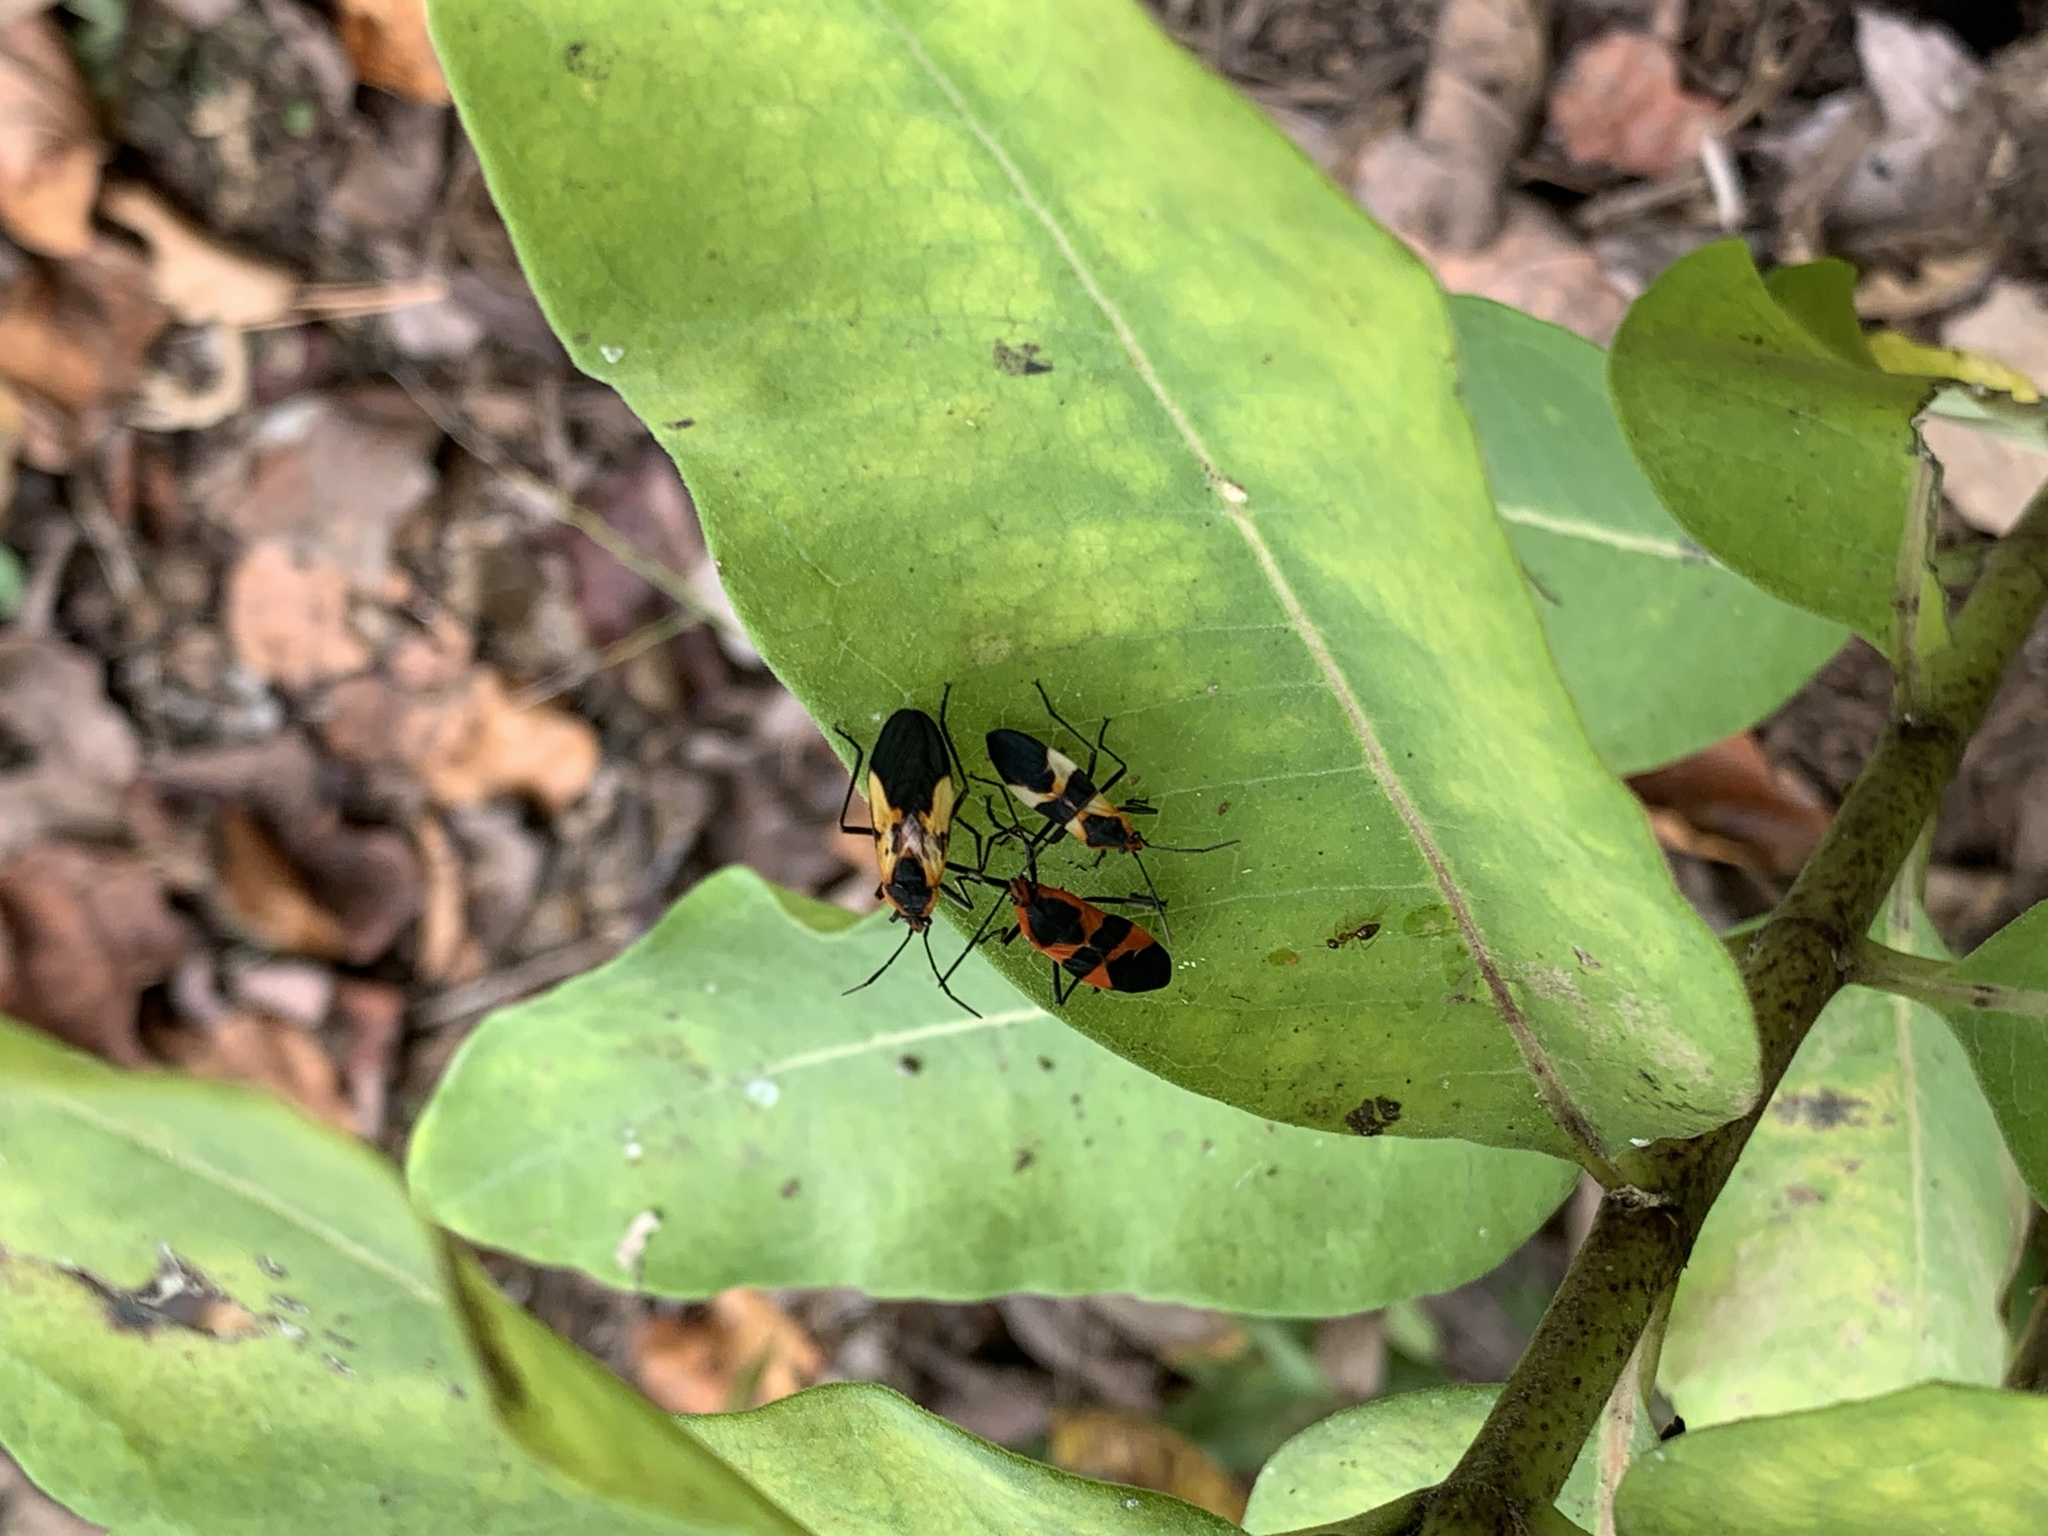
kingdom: Animalia
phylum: Arthropoda
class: Insecta
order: Hemiptera
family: Lygaeidae
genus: Oncopeltus
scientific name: Oncopeltus fasciatus
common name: Large milkweed bug
